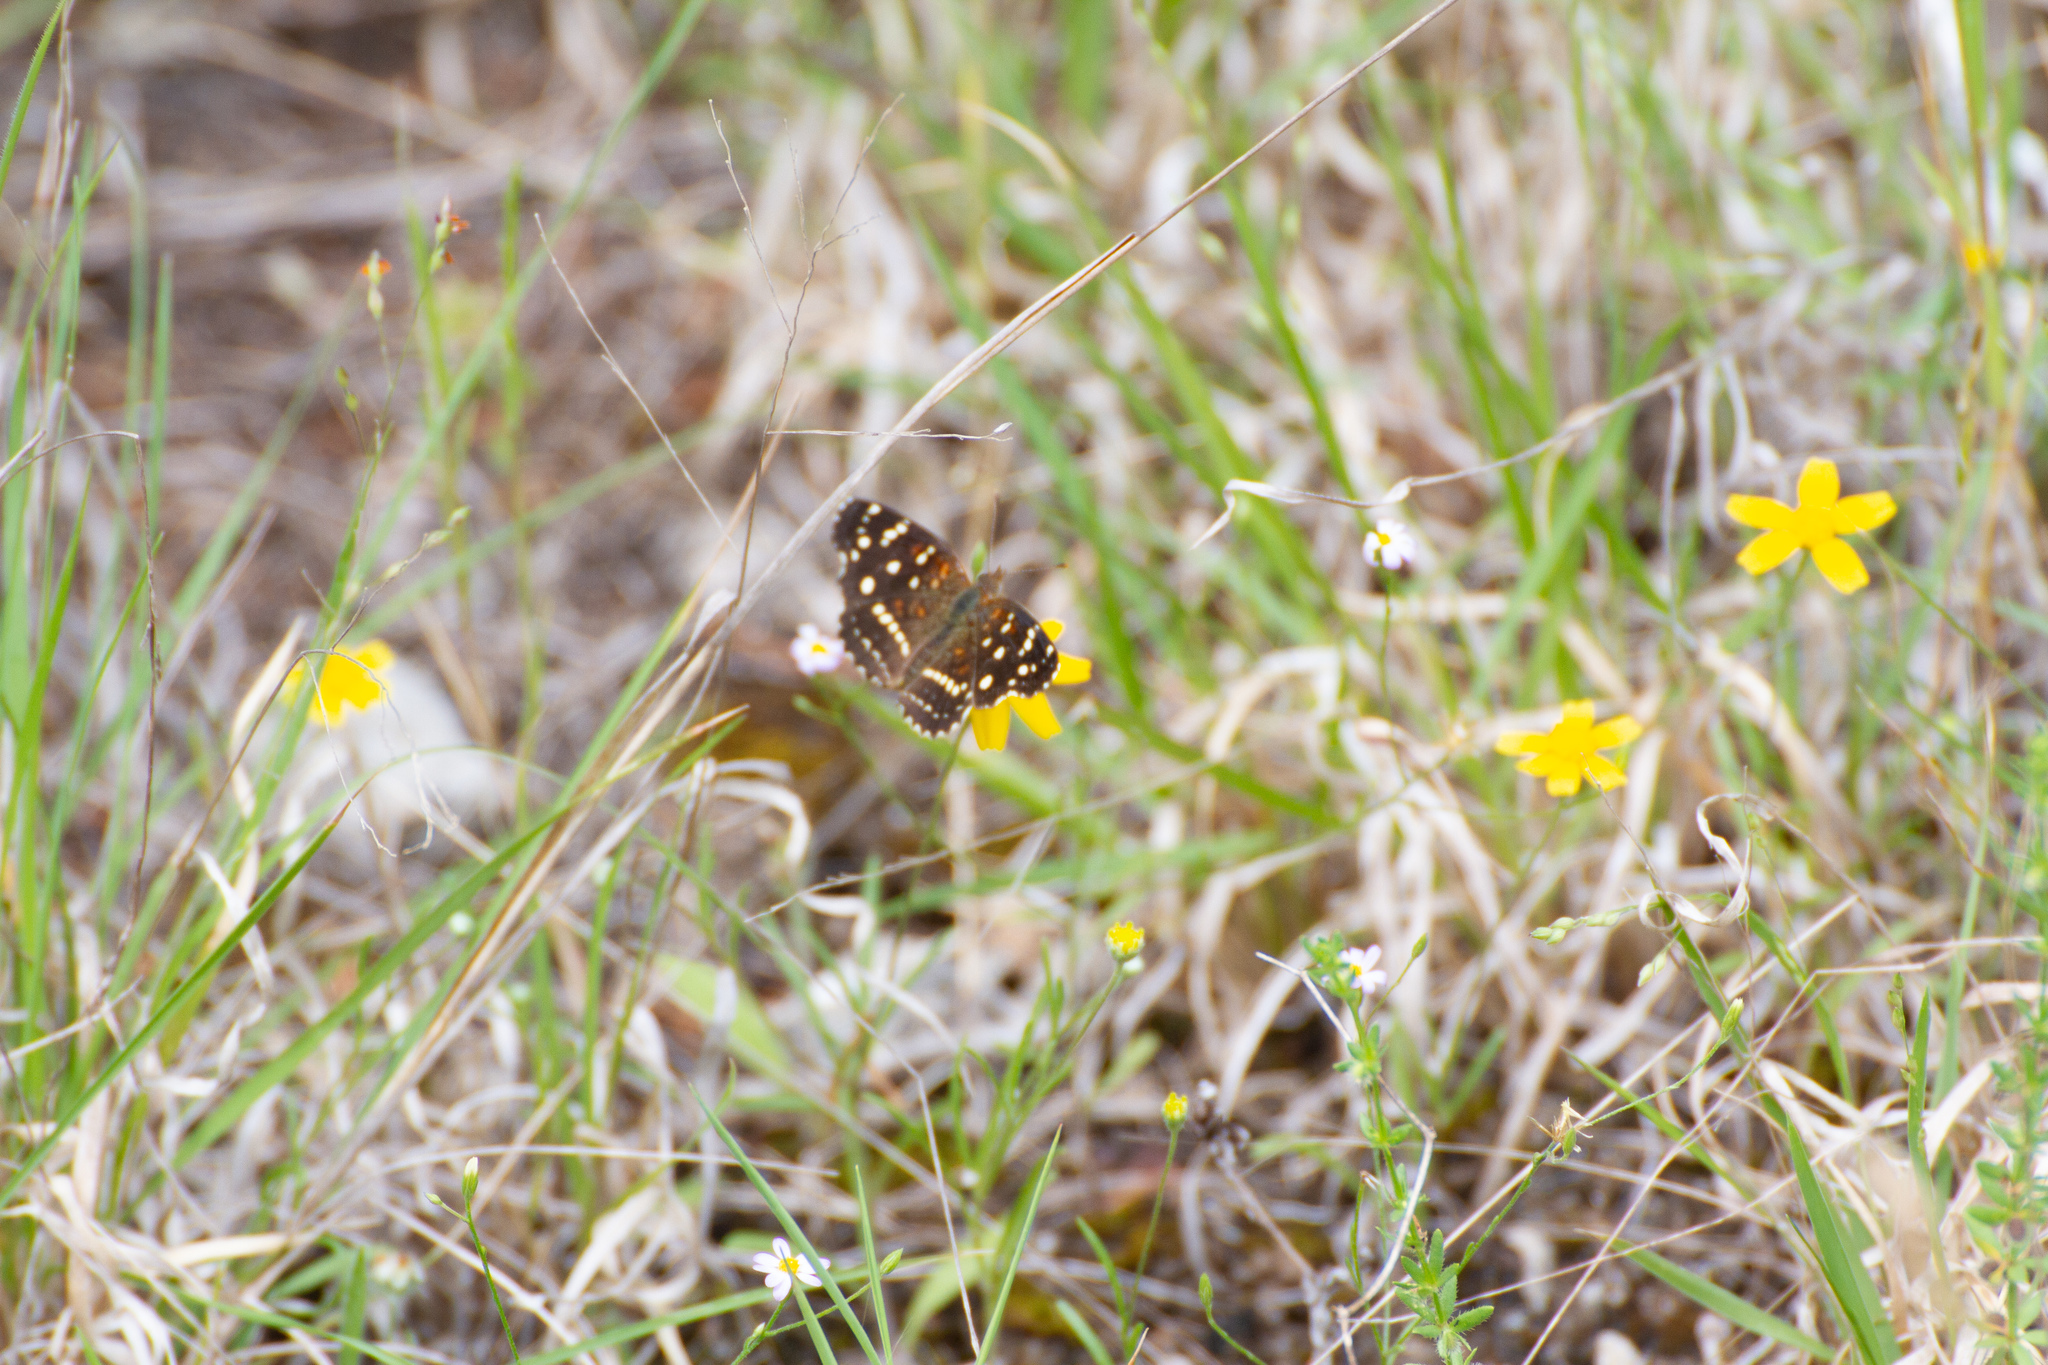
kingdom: Animalia
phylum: Arthropoda
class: Insecta
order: Lepidoptera
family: Nymphalidae
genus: Anthanassa
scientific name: Anthanassa texana
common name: Texan crescent
